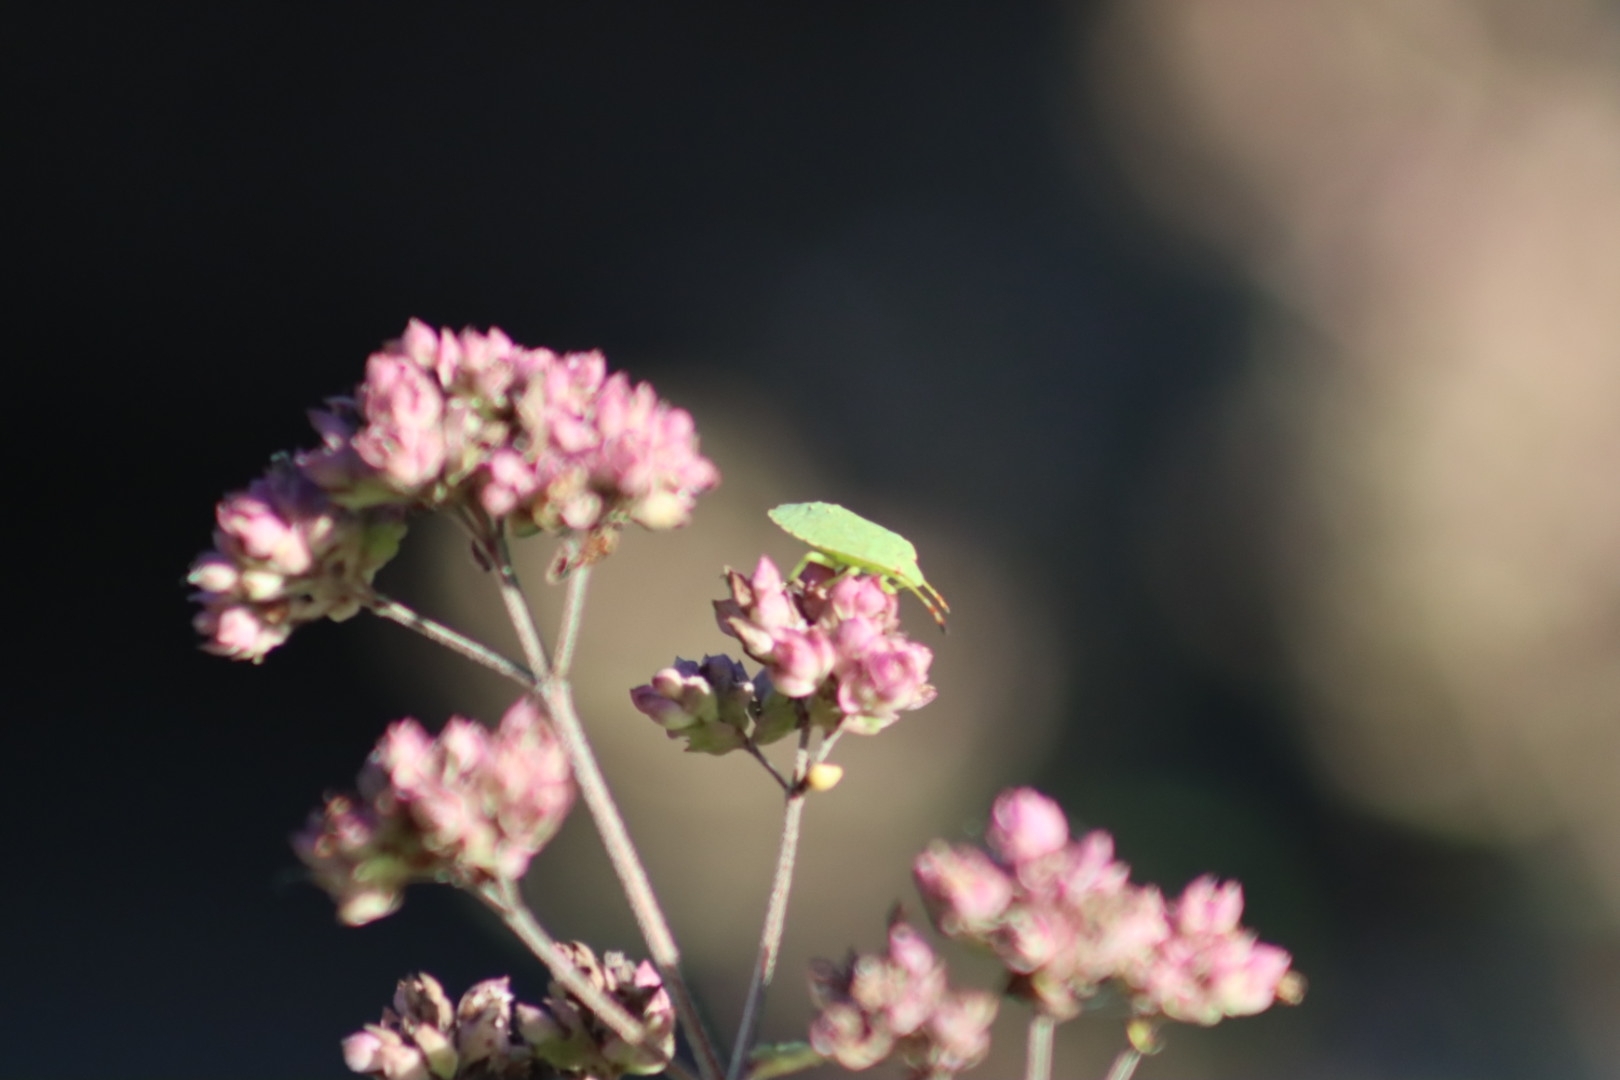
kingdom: Animalia
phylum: Arthropoda
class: Insecta
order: Hemiptera
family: Pentatomidae
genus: Palomena
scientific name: Palomena prasina
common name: Green shieldbug
